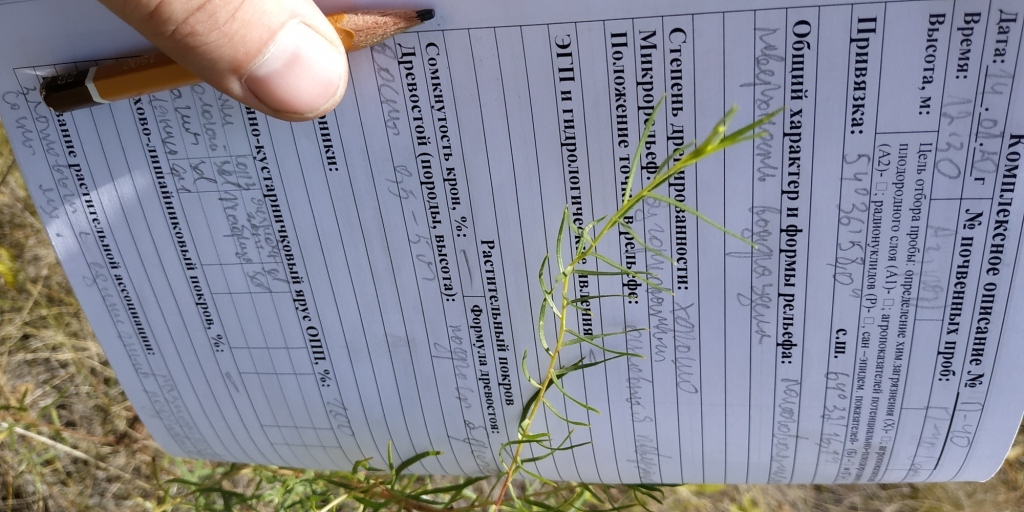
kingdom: Plantae
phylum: Tracheophyta
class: Magnoliopsida
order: Asterales
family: Asteraceae
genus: Artemisia
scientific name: Artemisia dracunculus
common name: Tarragon
